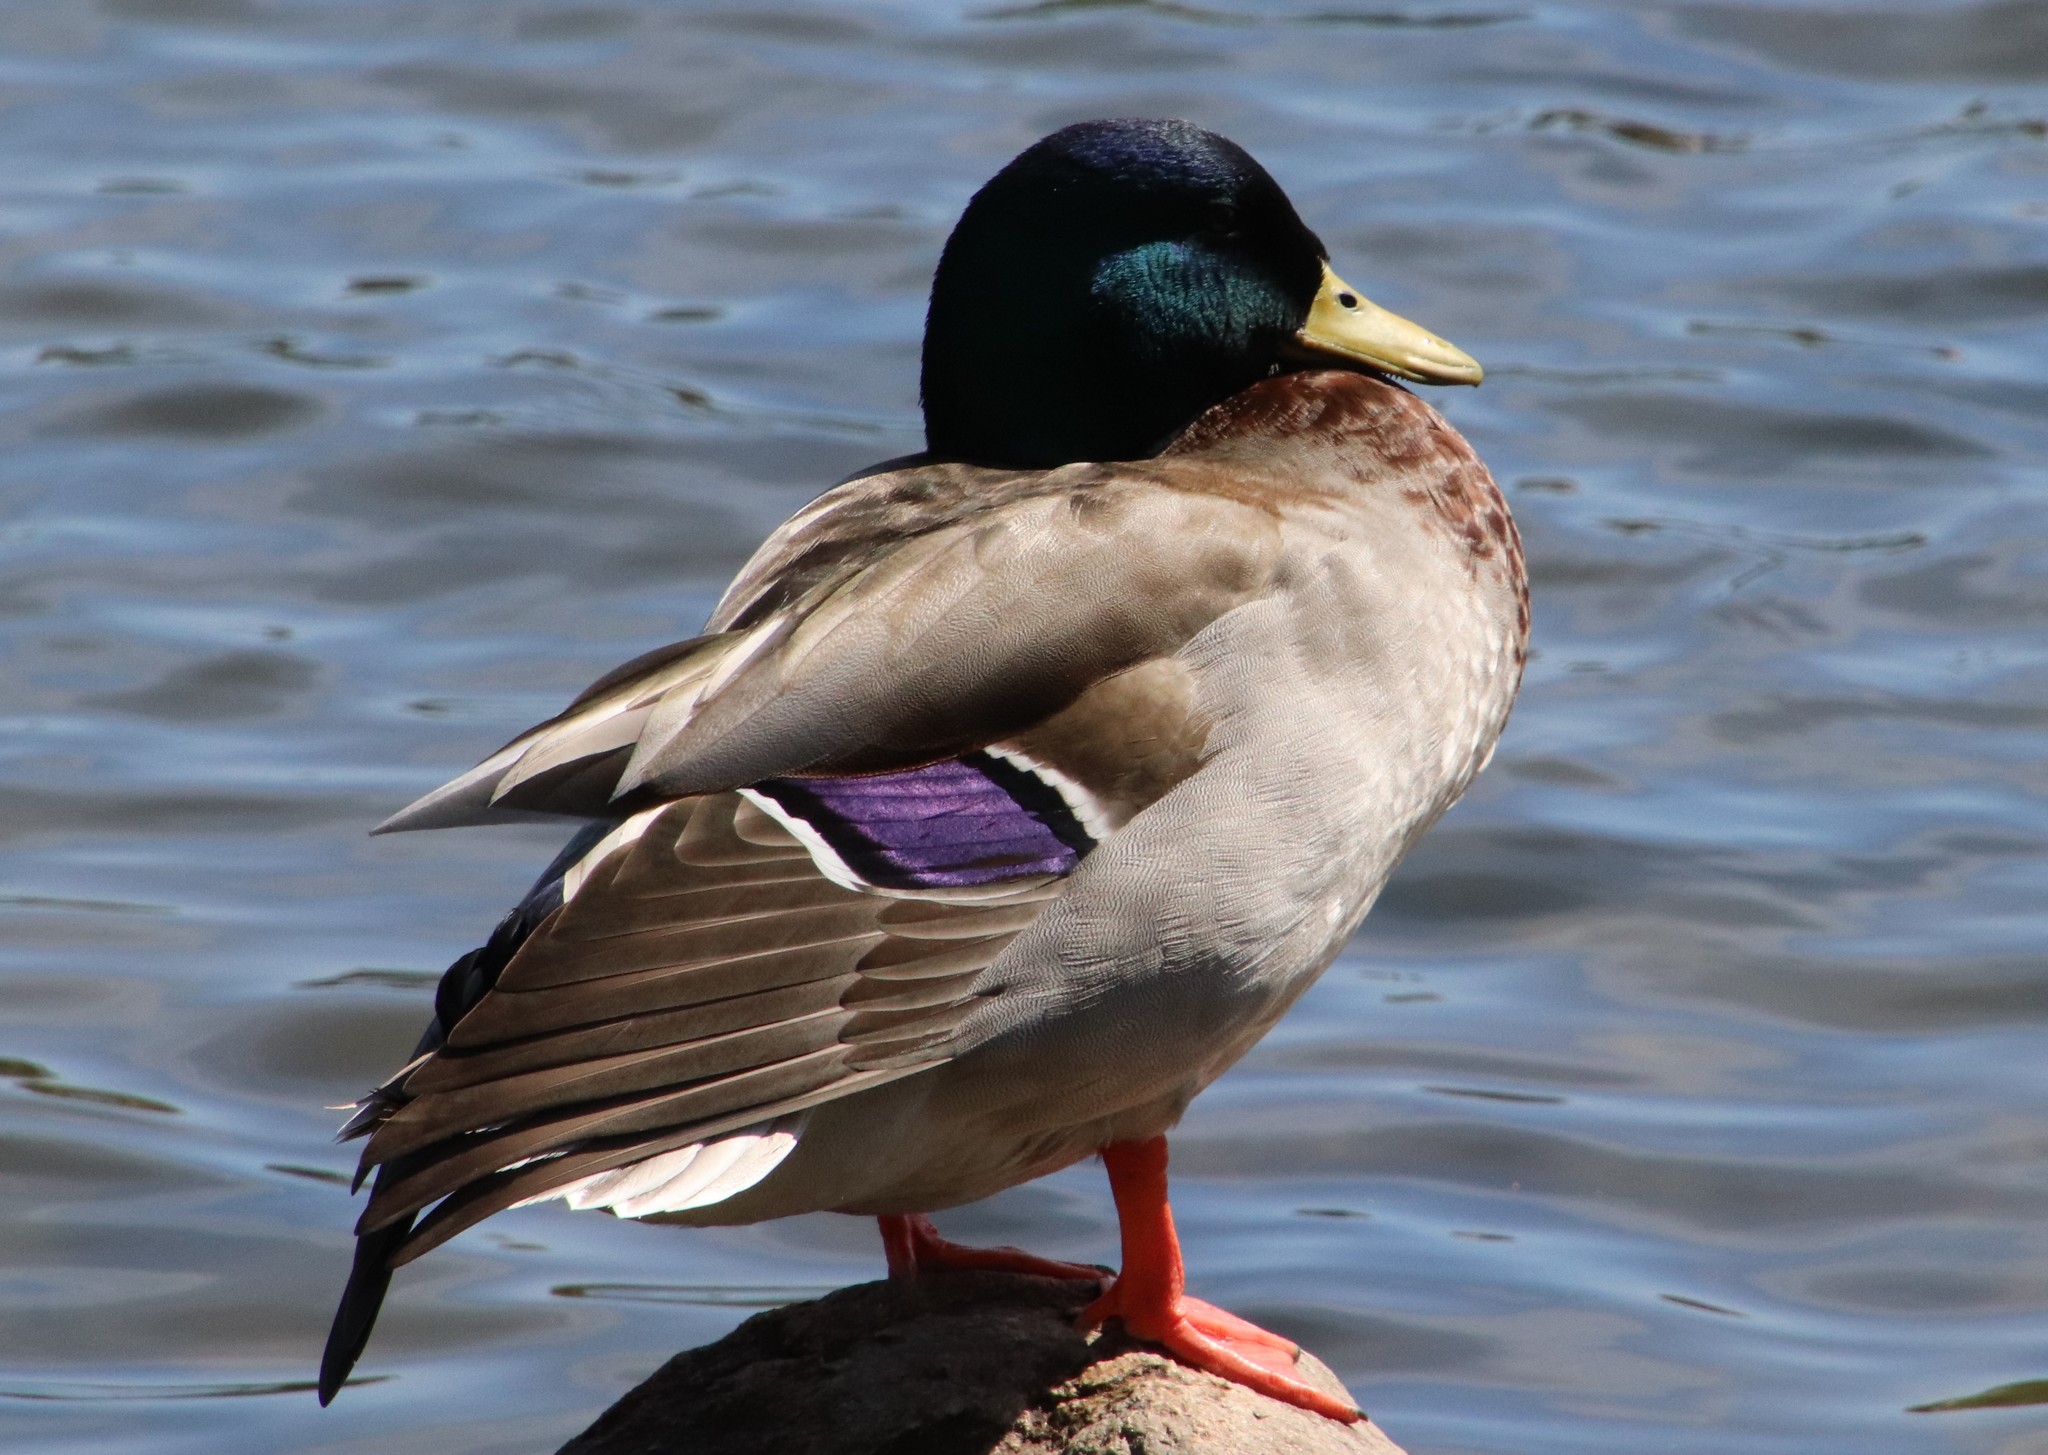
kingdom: Animalia
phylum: Chordata
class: Aves
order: Anseriformes
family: Anatidae
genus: Anas
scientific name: Anas platyrhynchos
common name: Mallard
